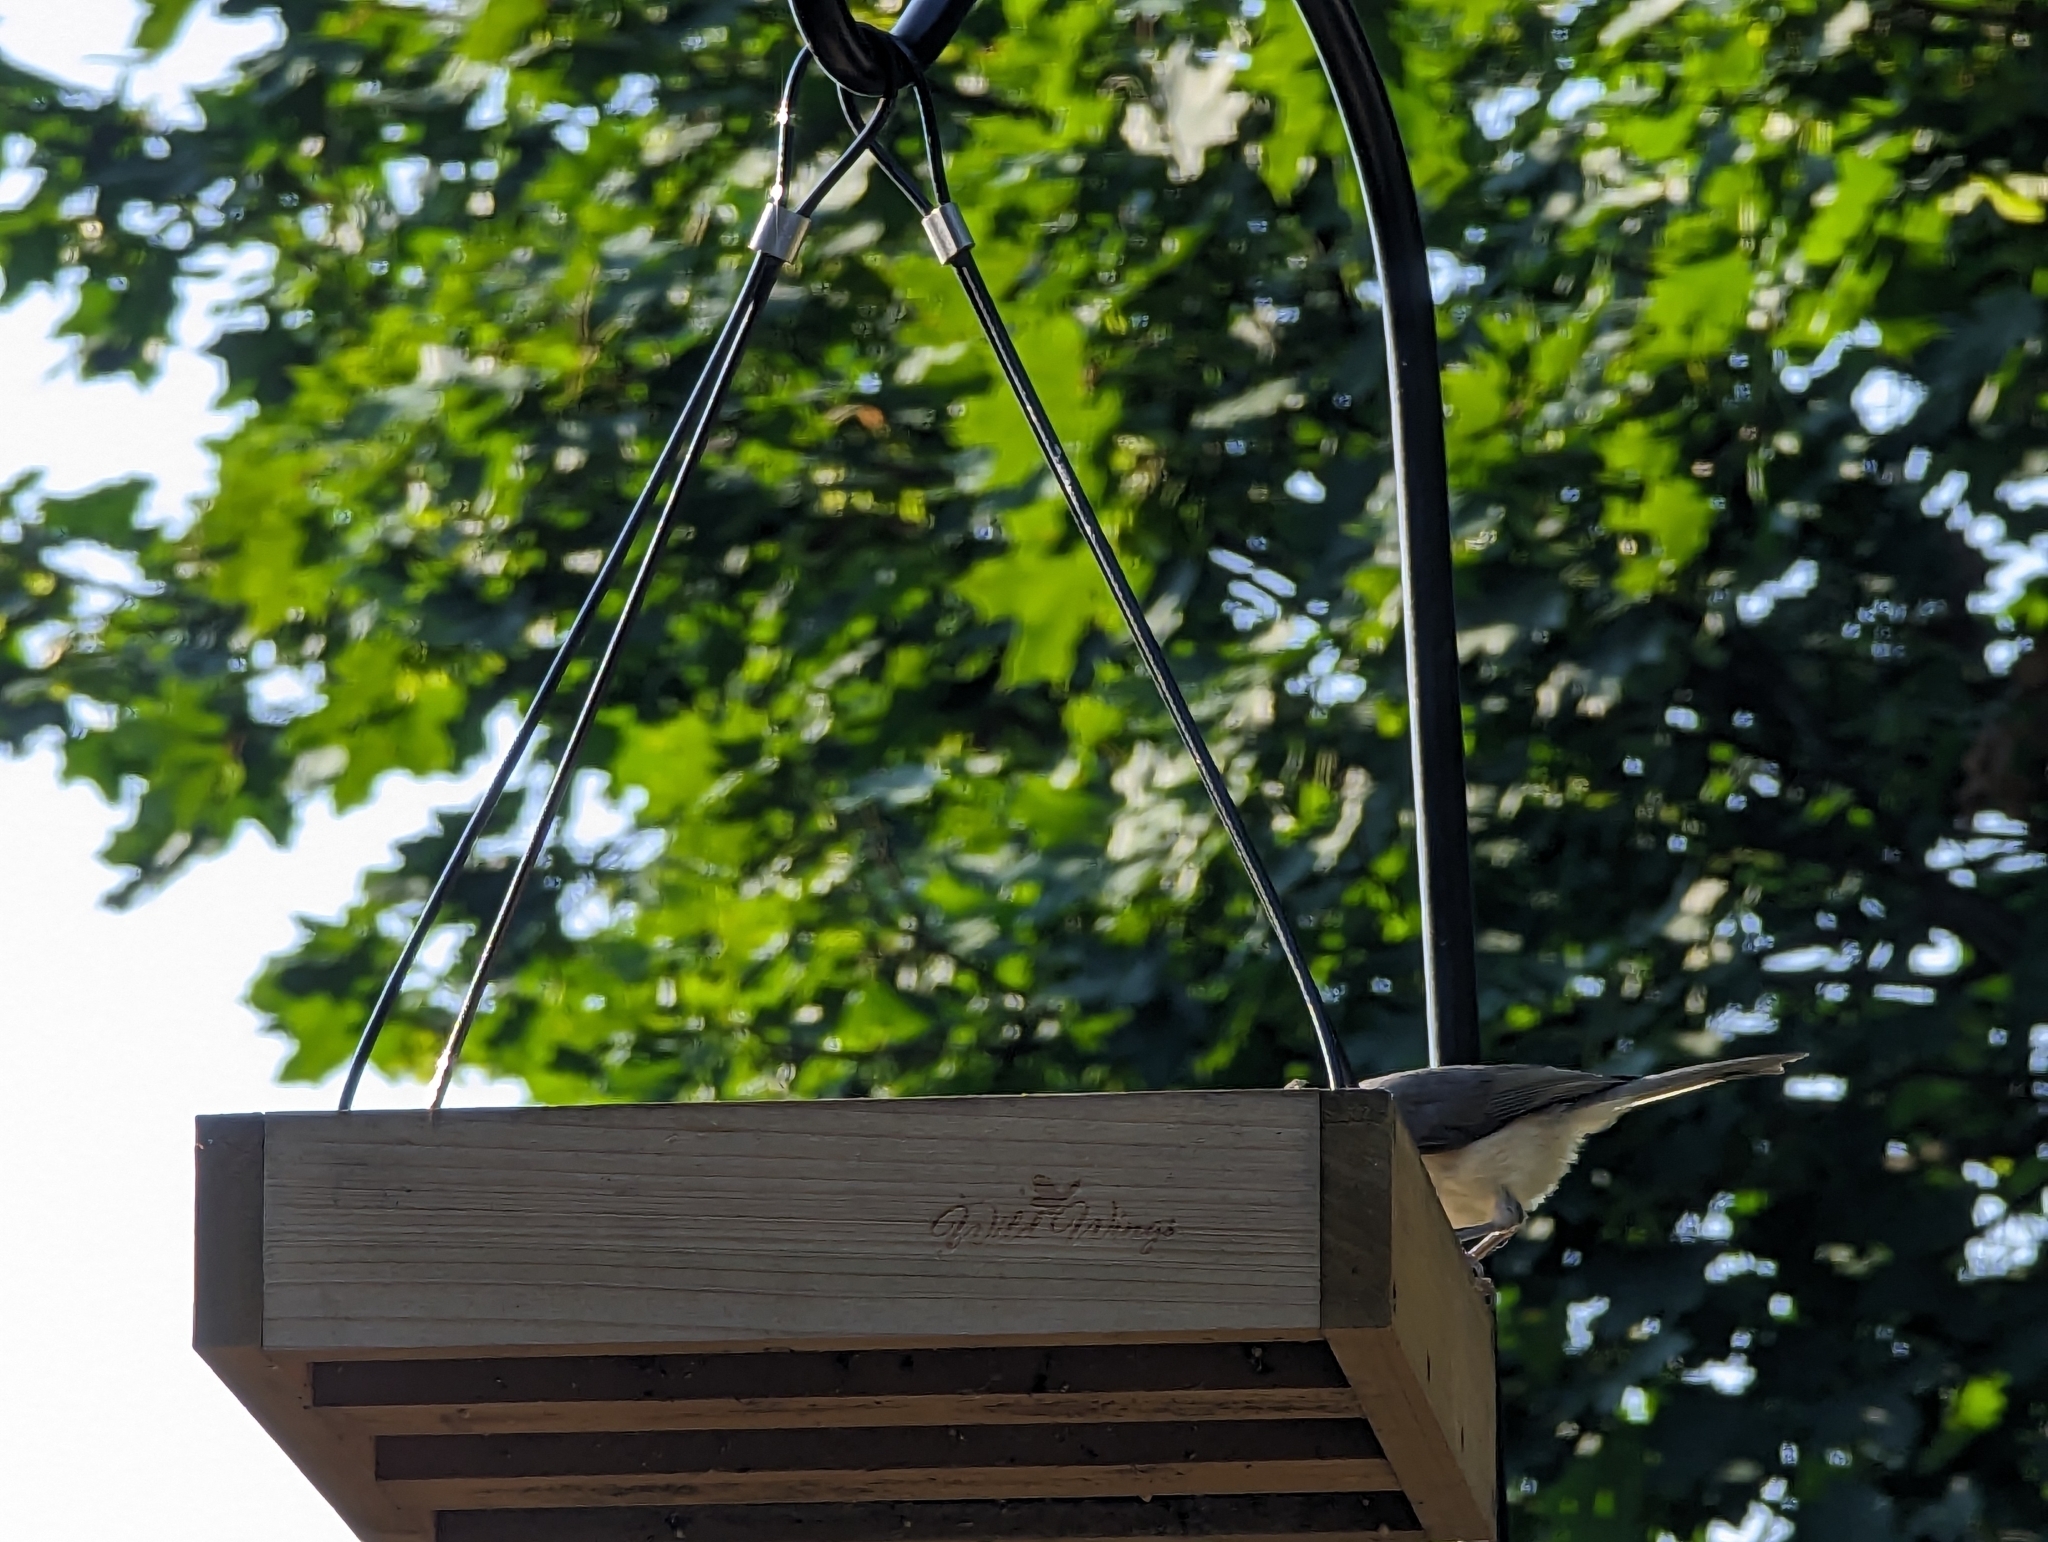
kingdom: Animalia
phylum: Chordata
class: Aves
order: Passeriformes
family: Paridae
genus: Baeolophus
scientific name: Baeolophus bicolor
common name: Tufted titmouse
